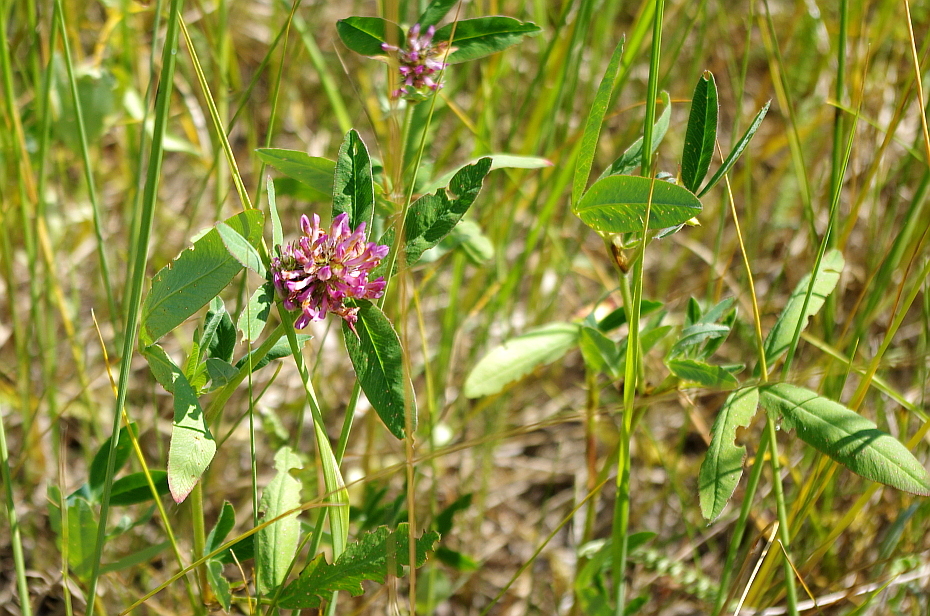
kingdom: Plantae
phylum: Tracheophyta
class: Magnoliopsida
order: Fabales
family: Fabaceae
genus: Trifolium
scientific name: Trifolium medium
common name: Zigzag clover
